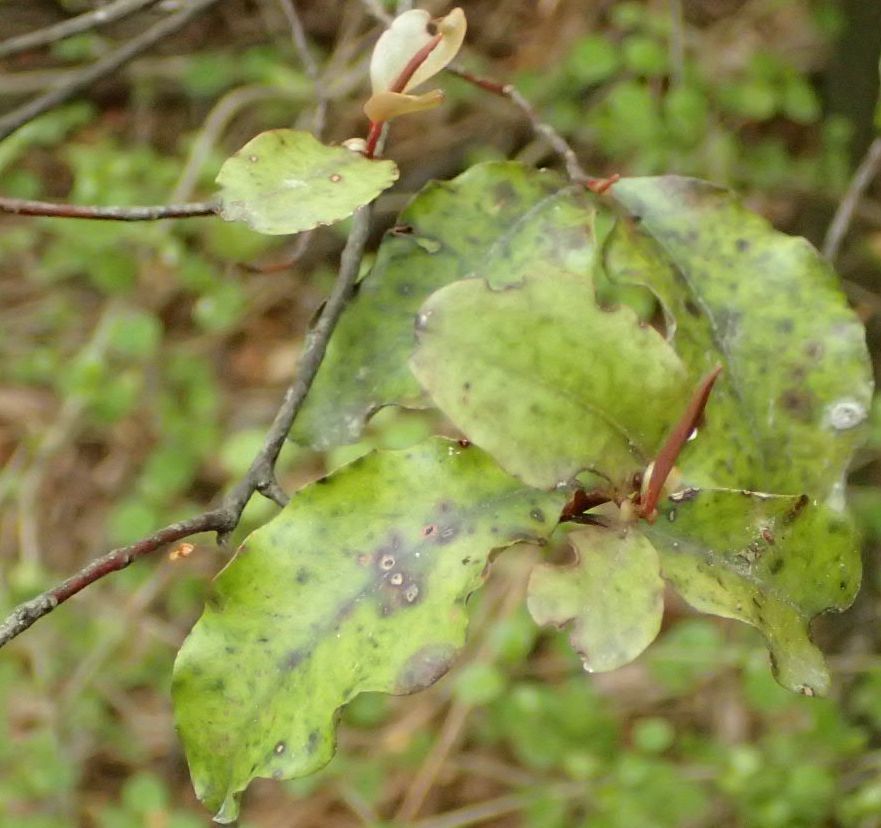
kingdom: Plantae
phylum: Tracheophyta
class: Magnoliopsida
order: Ericales
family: Primulaceae
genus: Myrsine
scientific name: Myrsine australis
